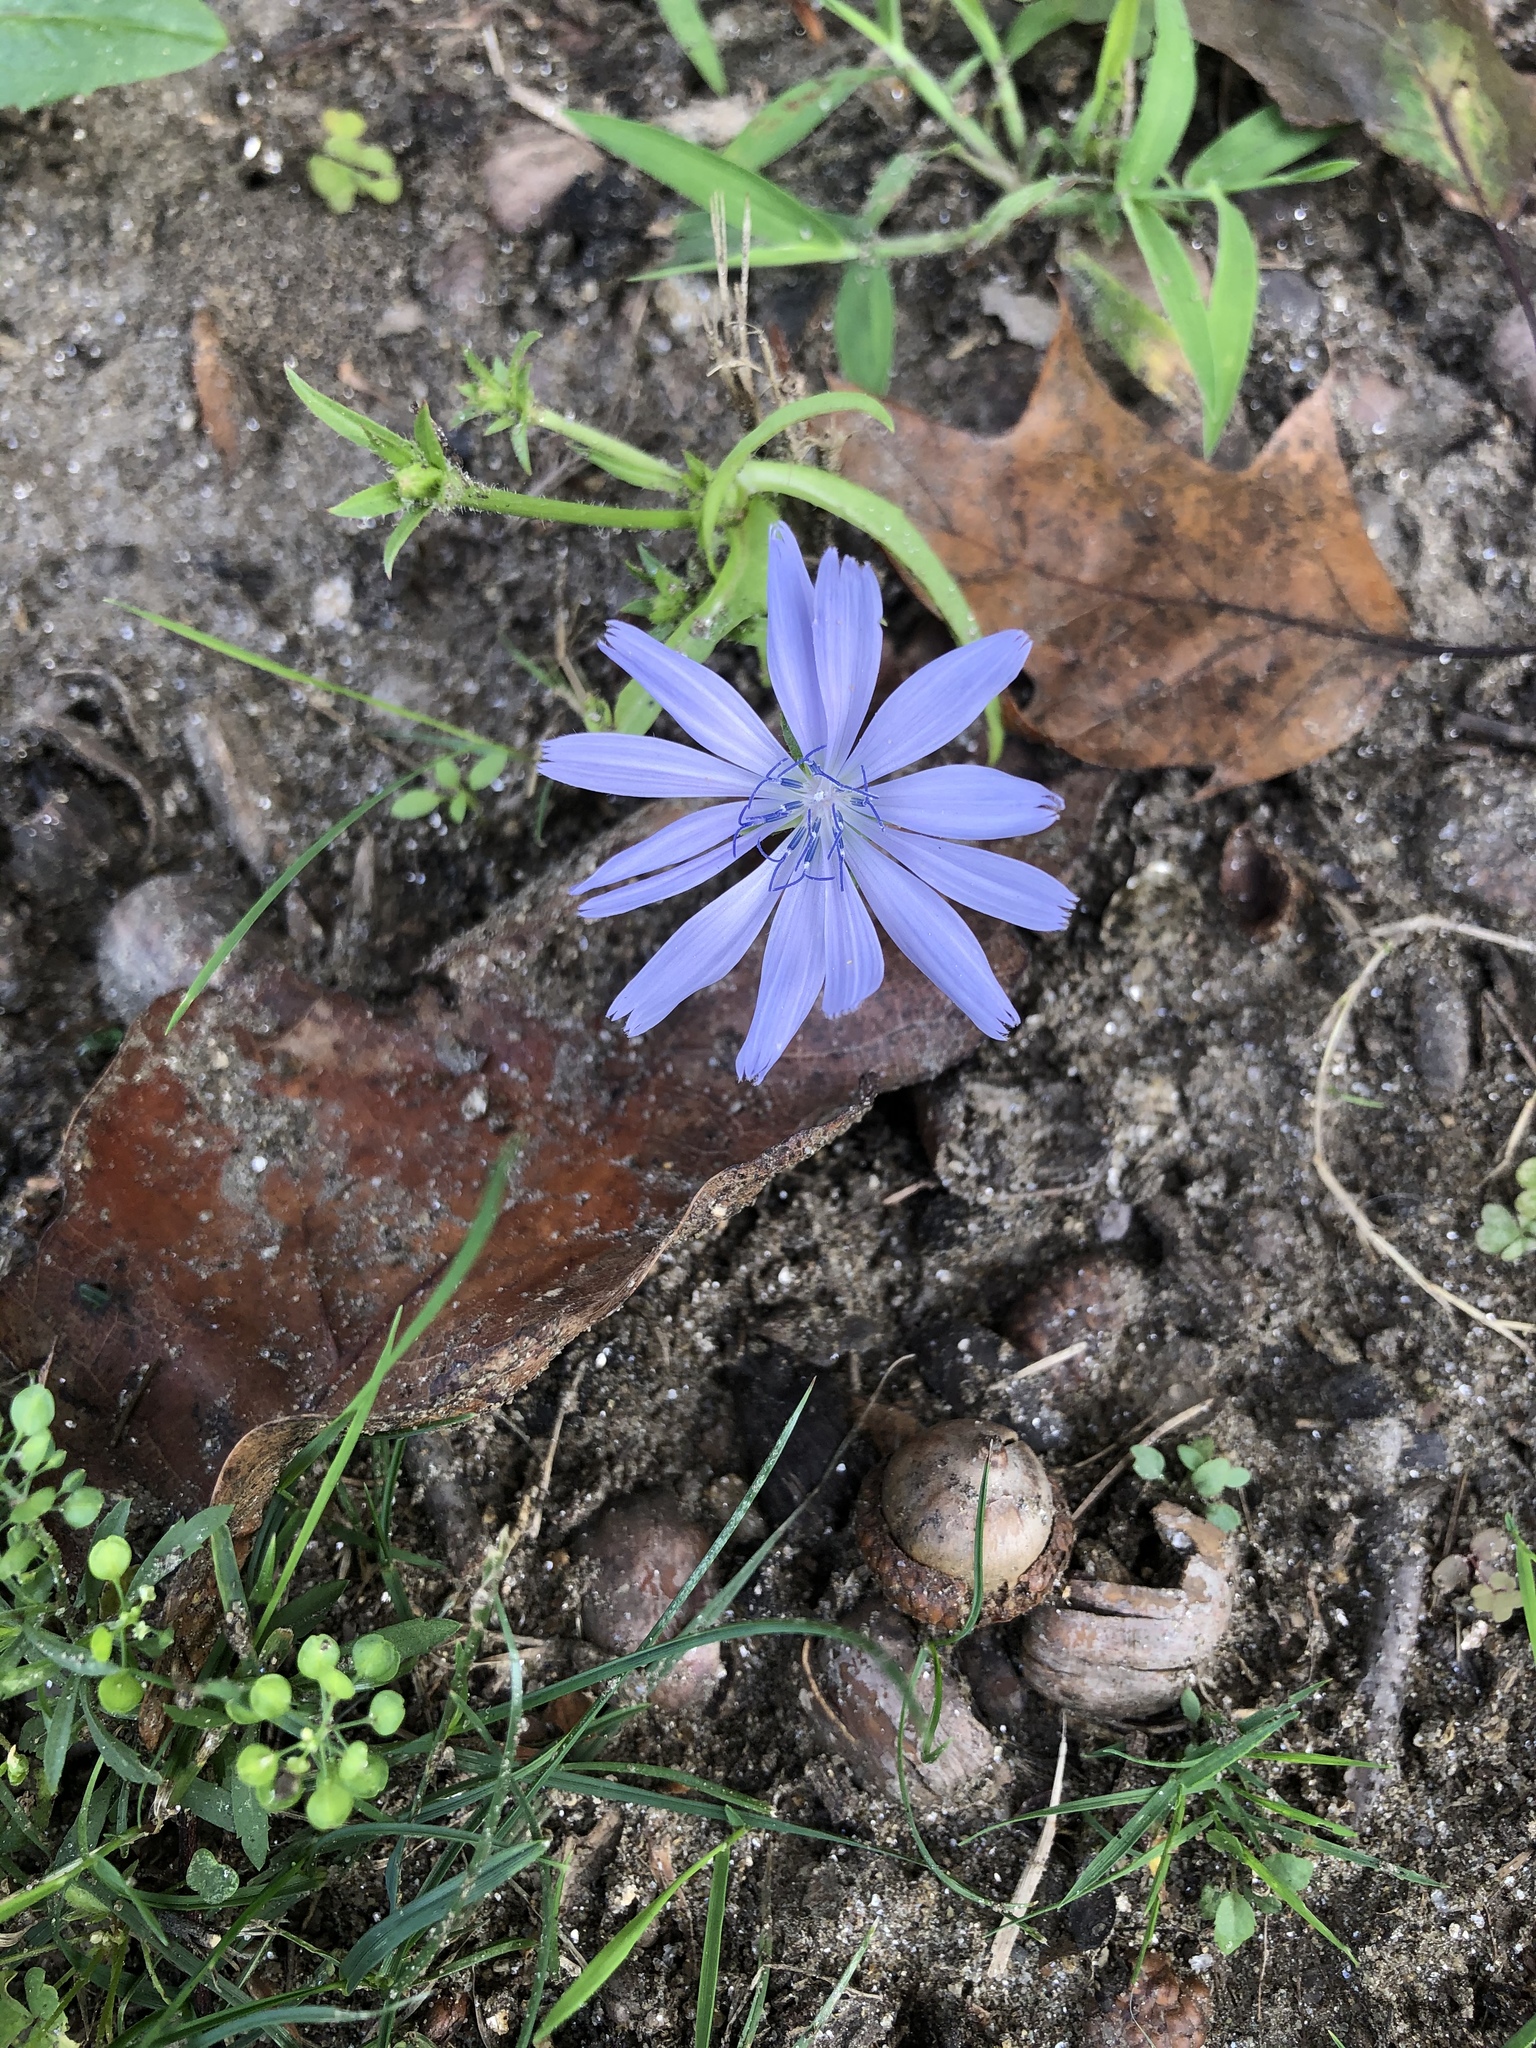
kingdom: Plantae
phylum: Tracheophyta
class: Magnoliopsida
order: Asterales
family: Asteraceae
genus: Cichorium
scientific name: Cichorium intybus
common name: Chicory
